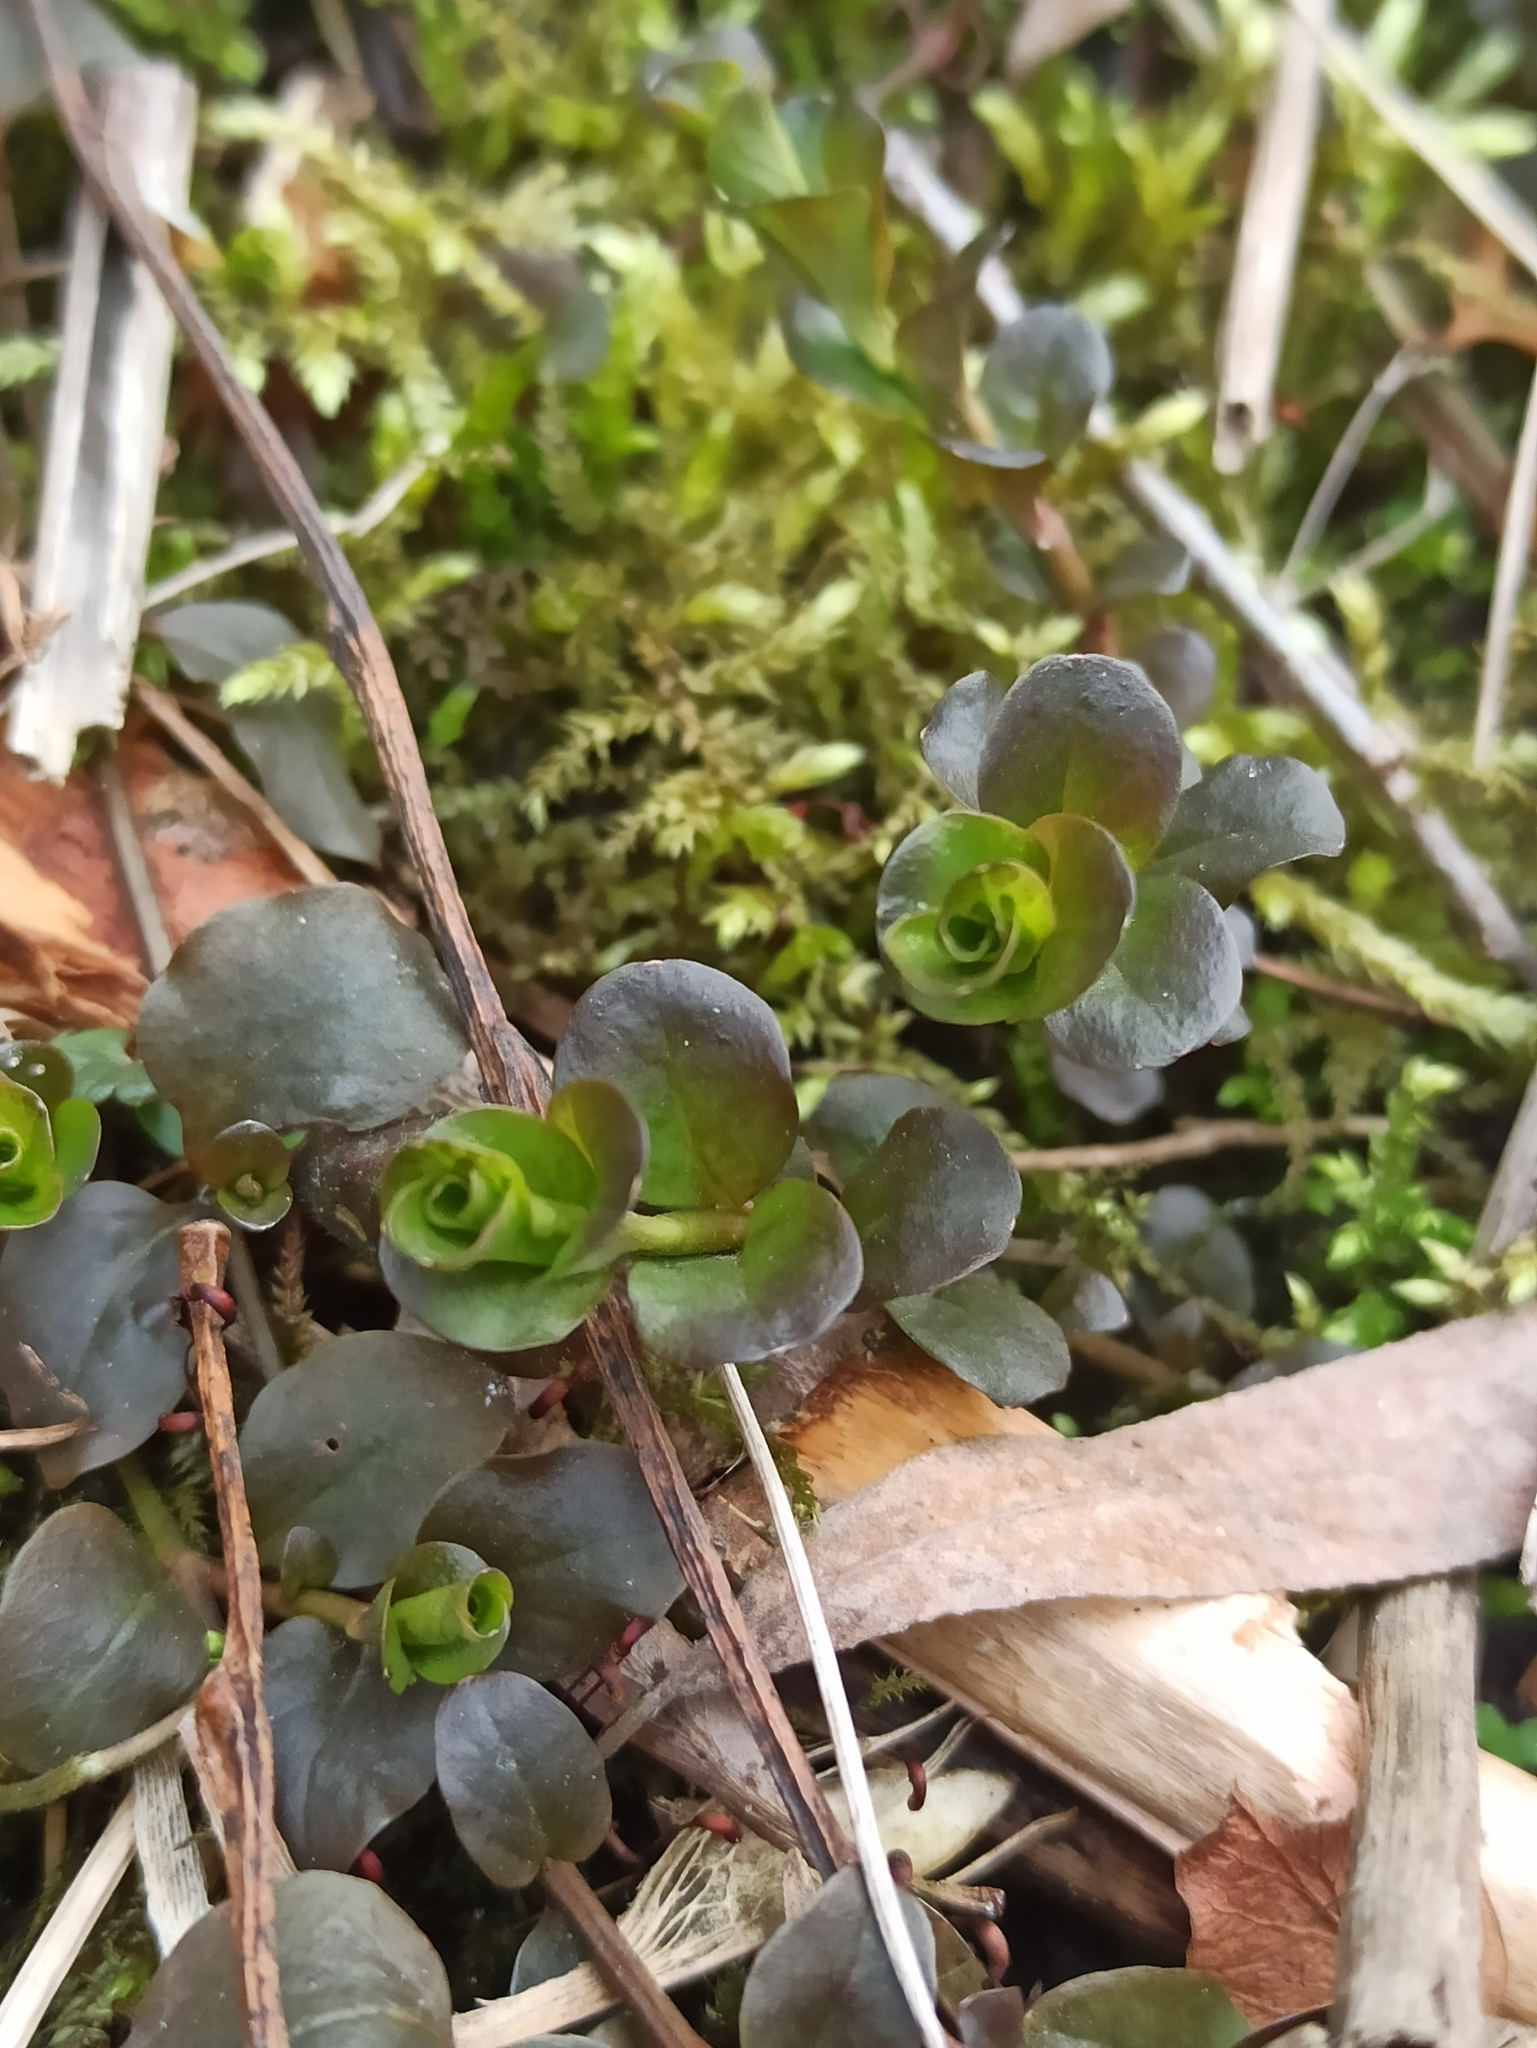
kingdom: Plantae
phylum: Tracheophyta
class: Magnoliopsida
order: Ericales
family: Primulaceae
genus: Lysimachia
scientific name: Lysimachia nummularia
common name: Moneywort
